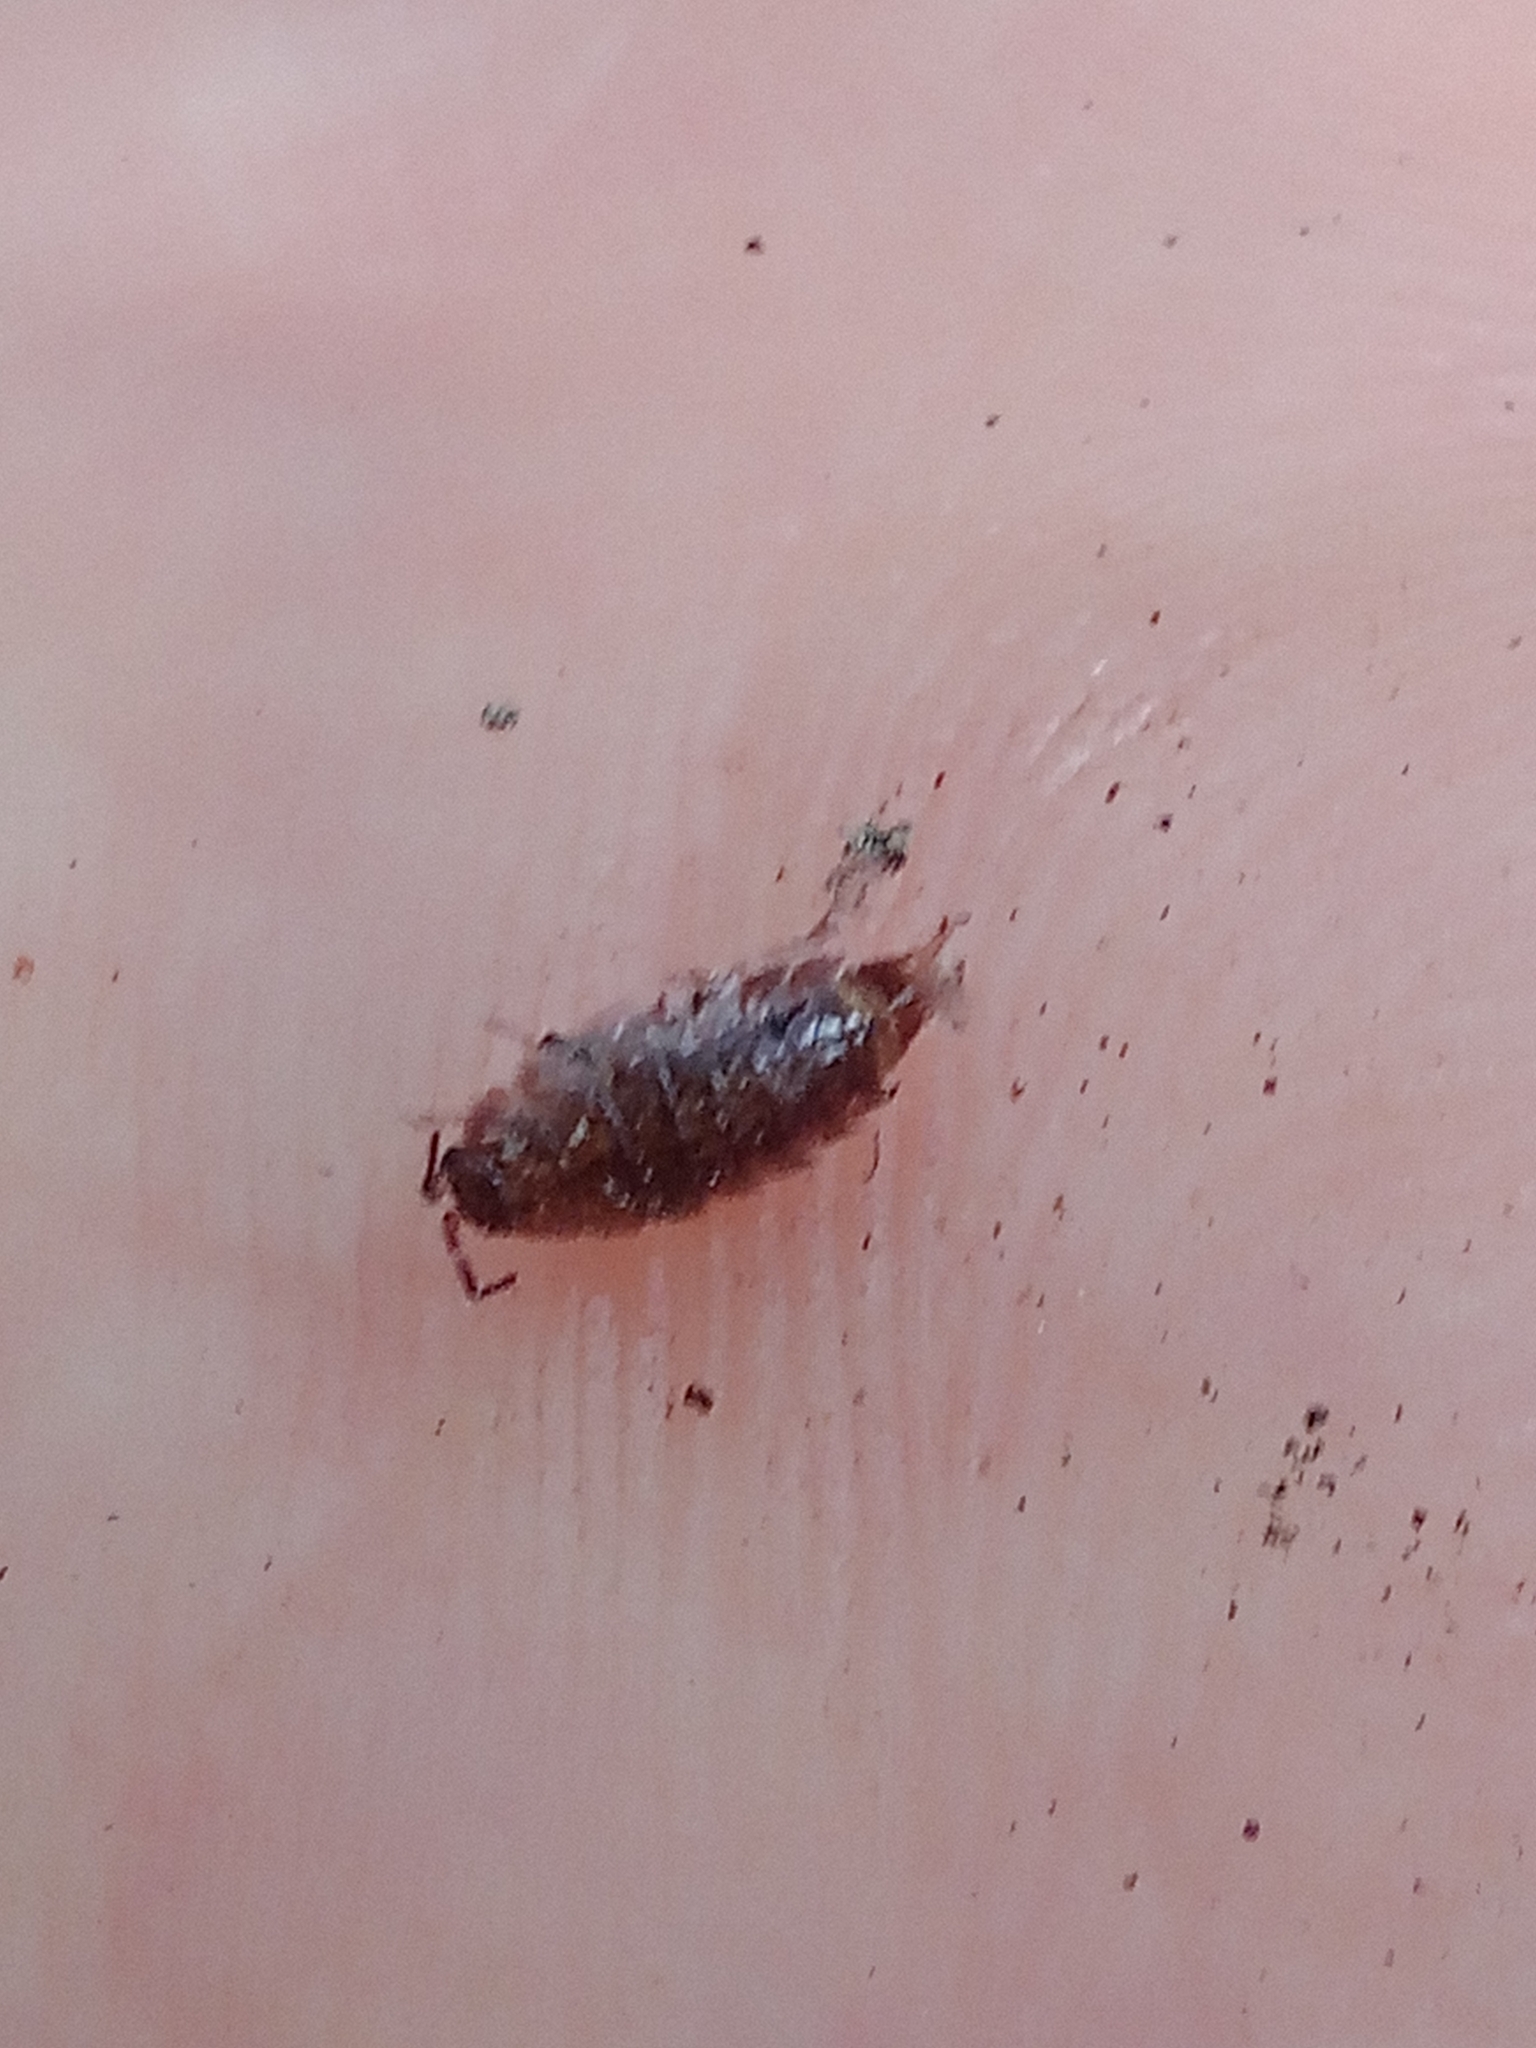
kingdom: Animalia
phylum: Arthropoda
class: Malacostraca
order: Isopoda
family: Trichoniscidae
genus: Hyloniscus
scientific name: Hyloniscus riparius
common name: Isopod
